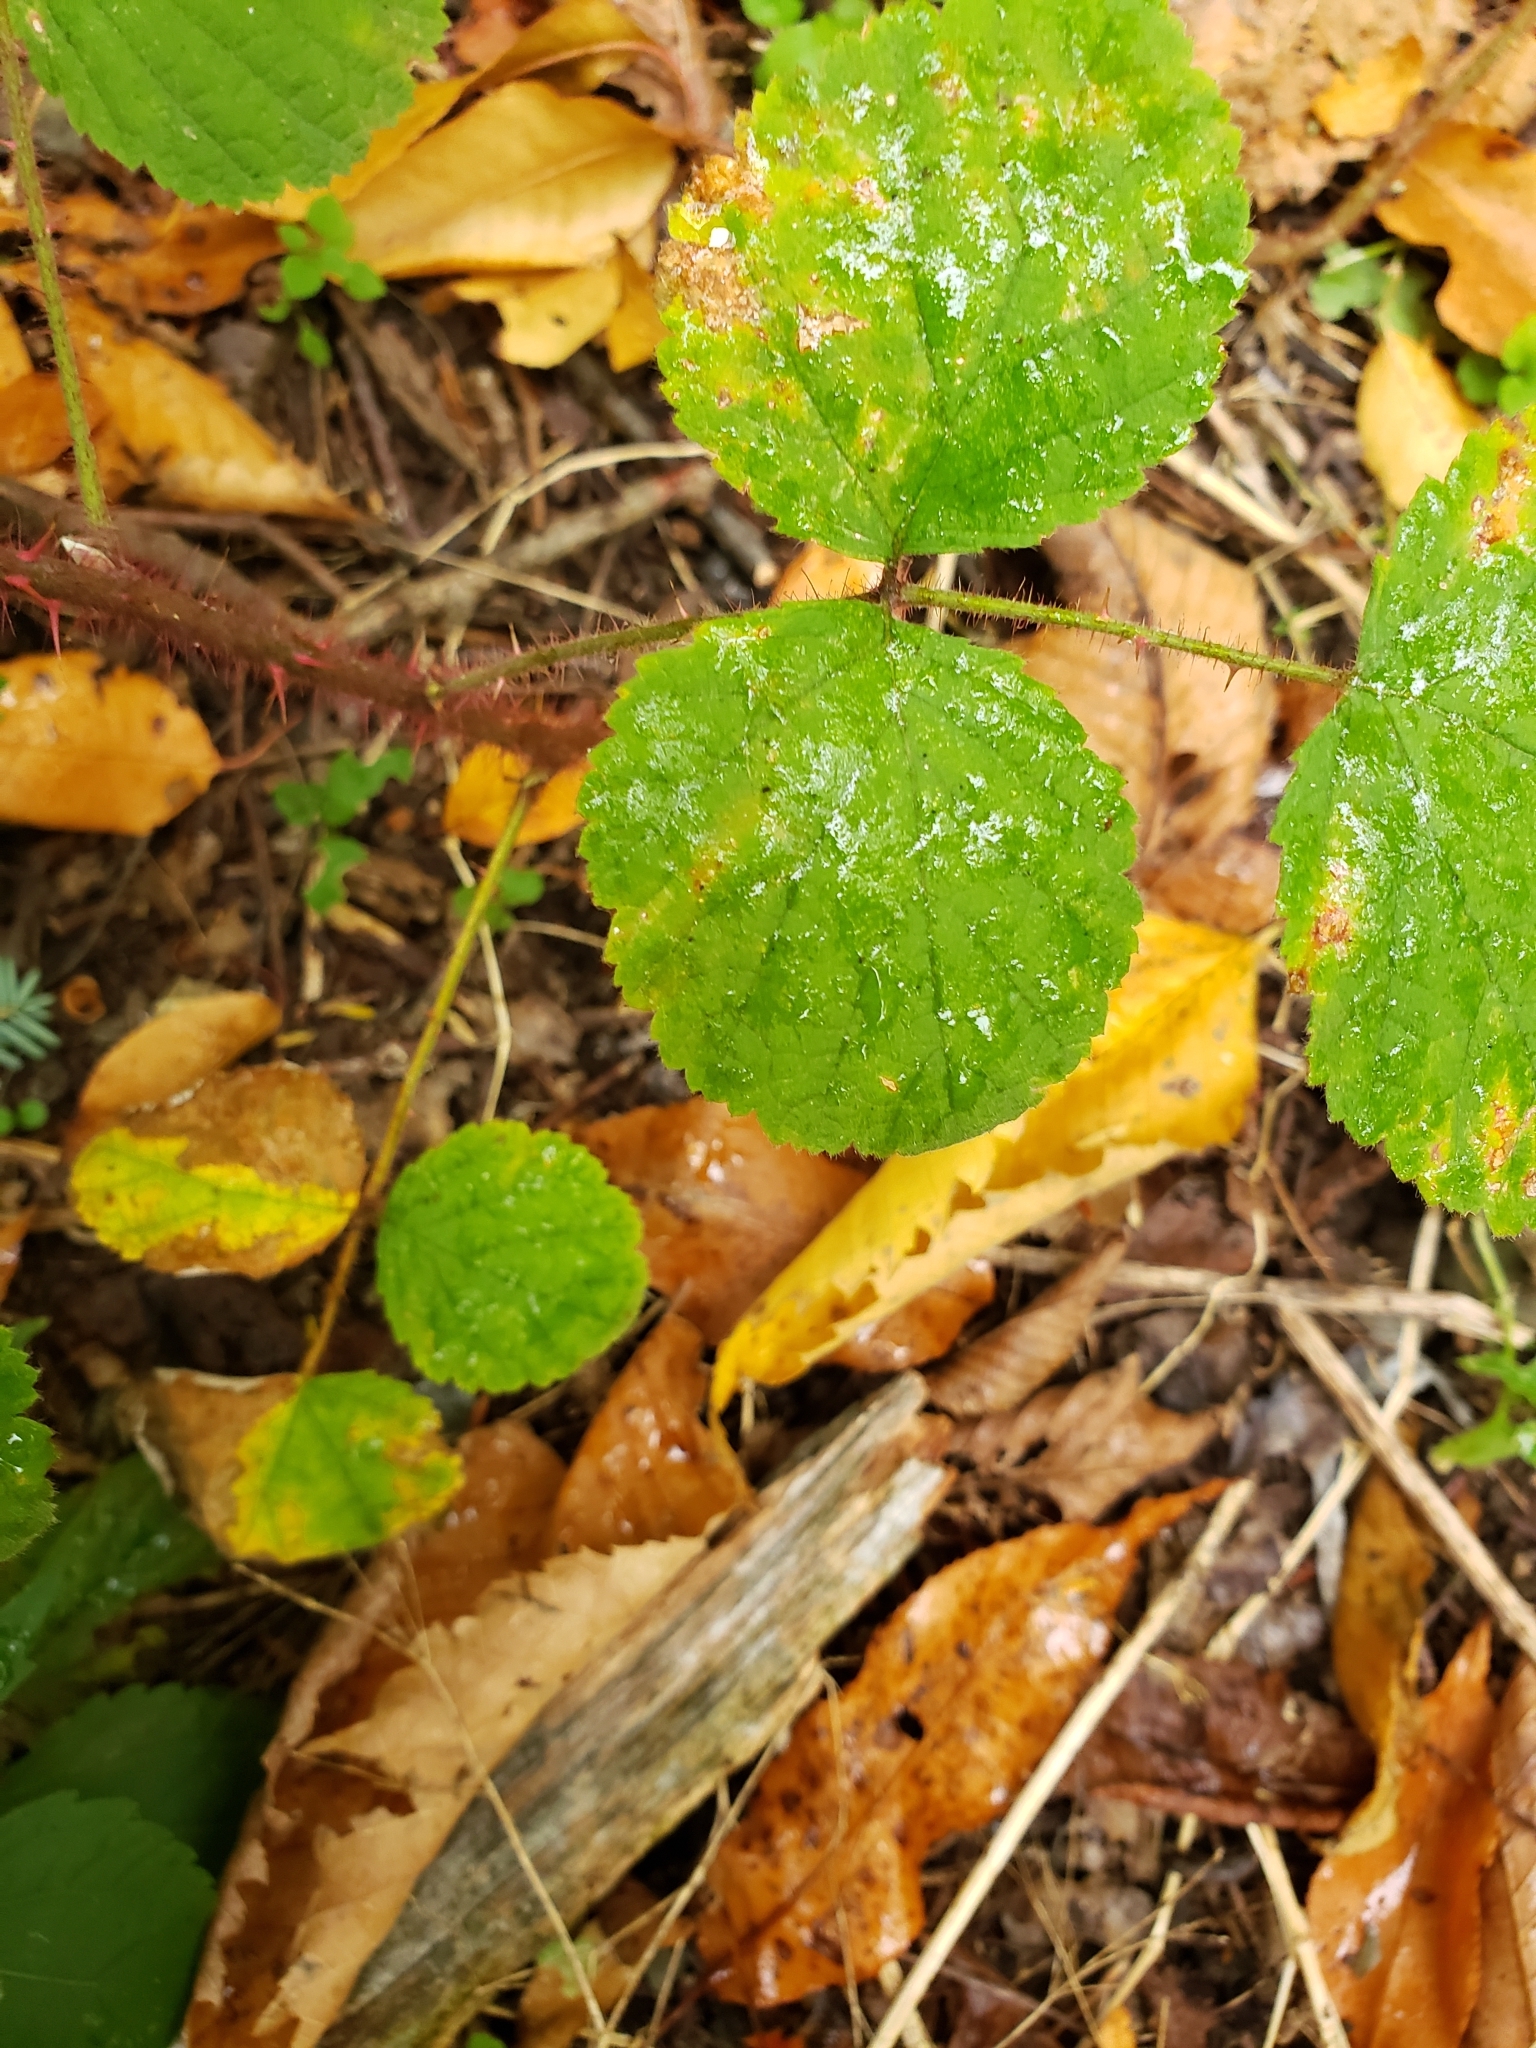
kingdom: Plantae
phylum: Tracheophyta
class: Magnoliopsida
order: Rosales
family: Rosaceae
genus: Rubus
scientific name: Rubus phoenicolasius
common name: Japanese wineberry
